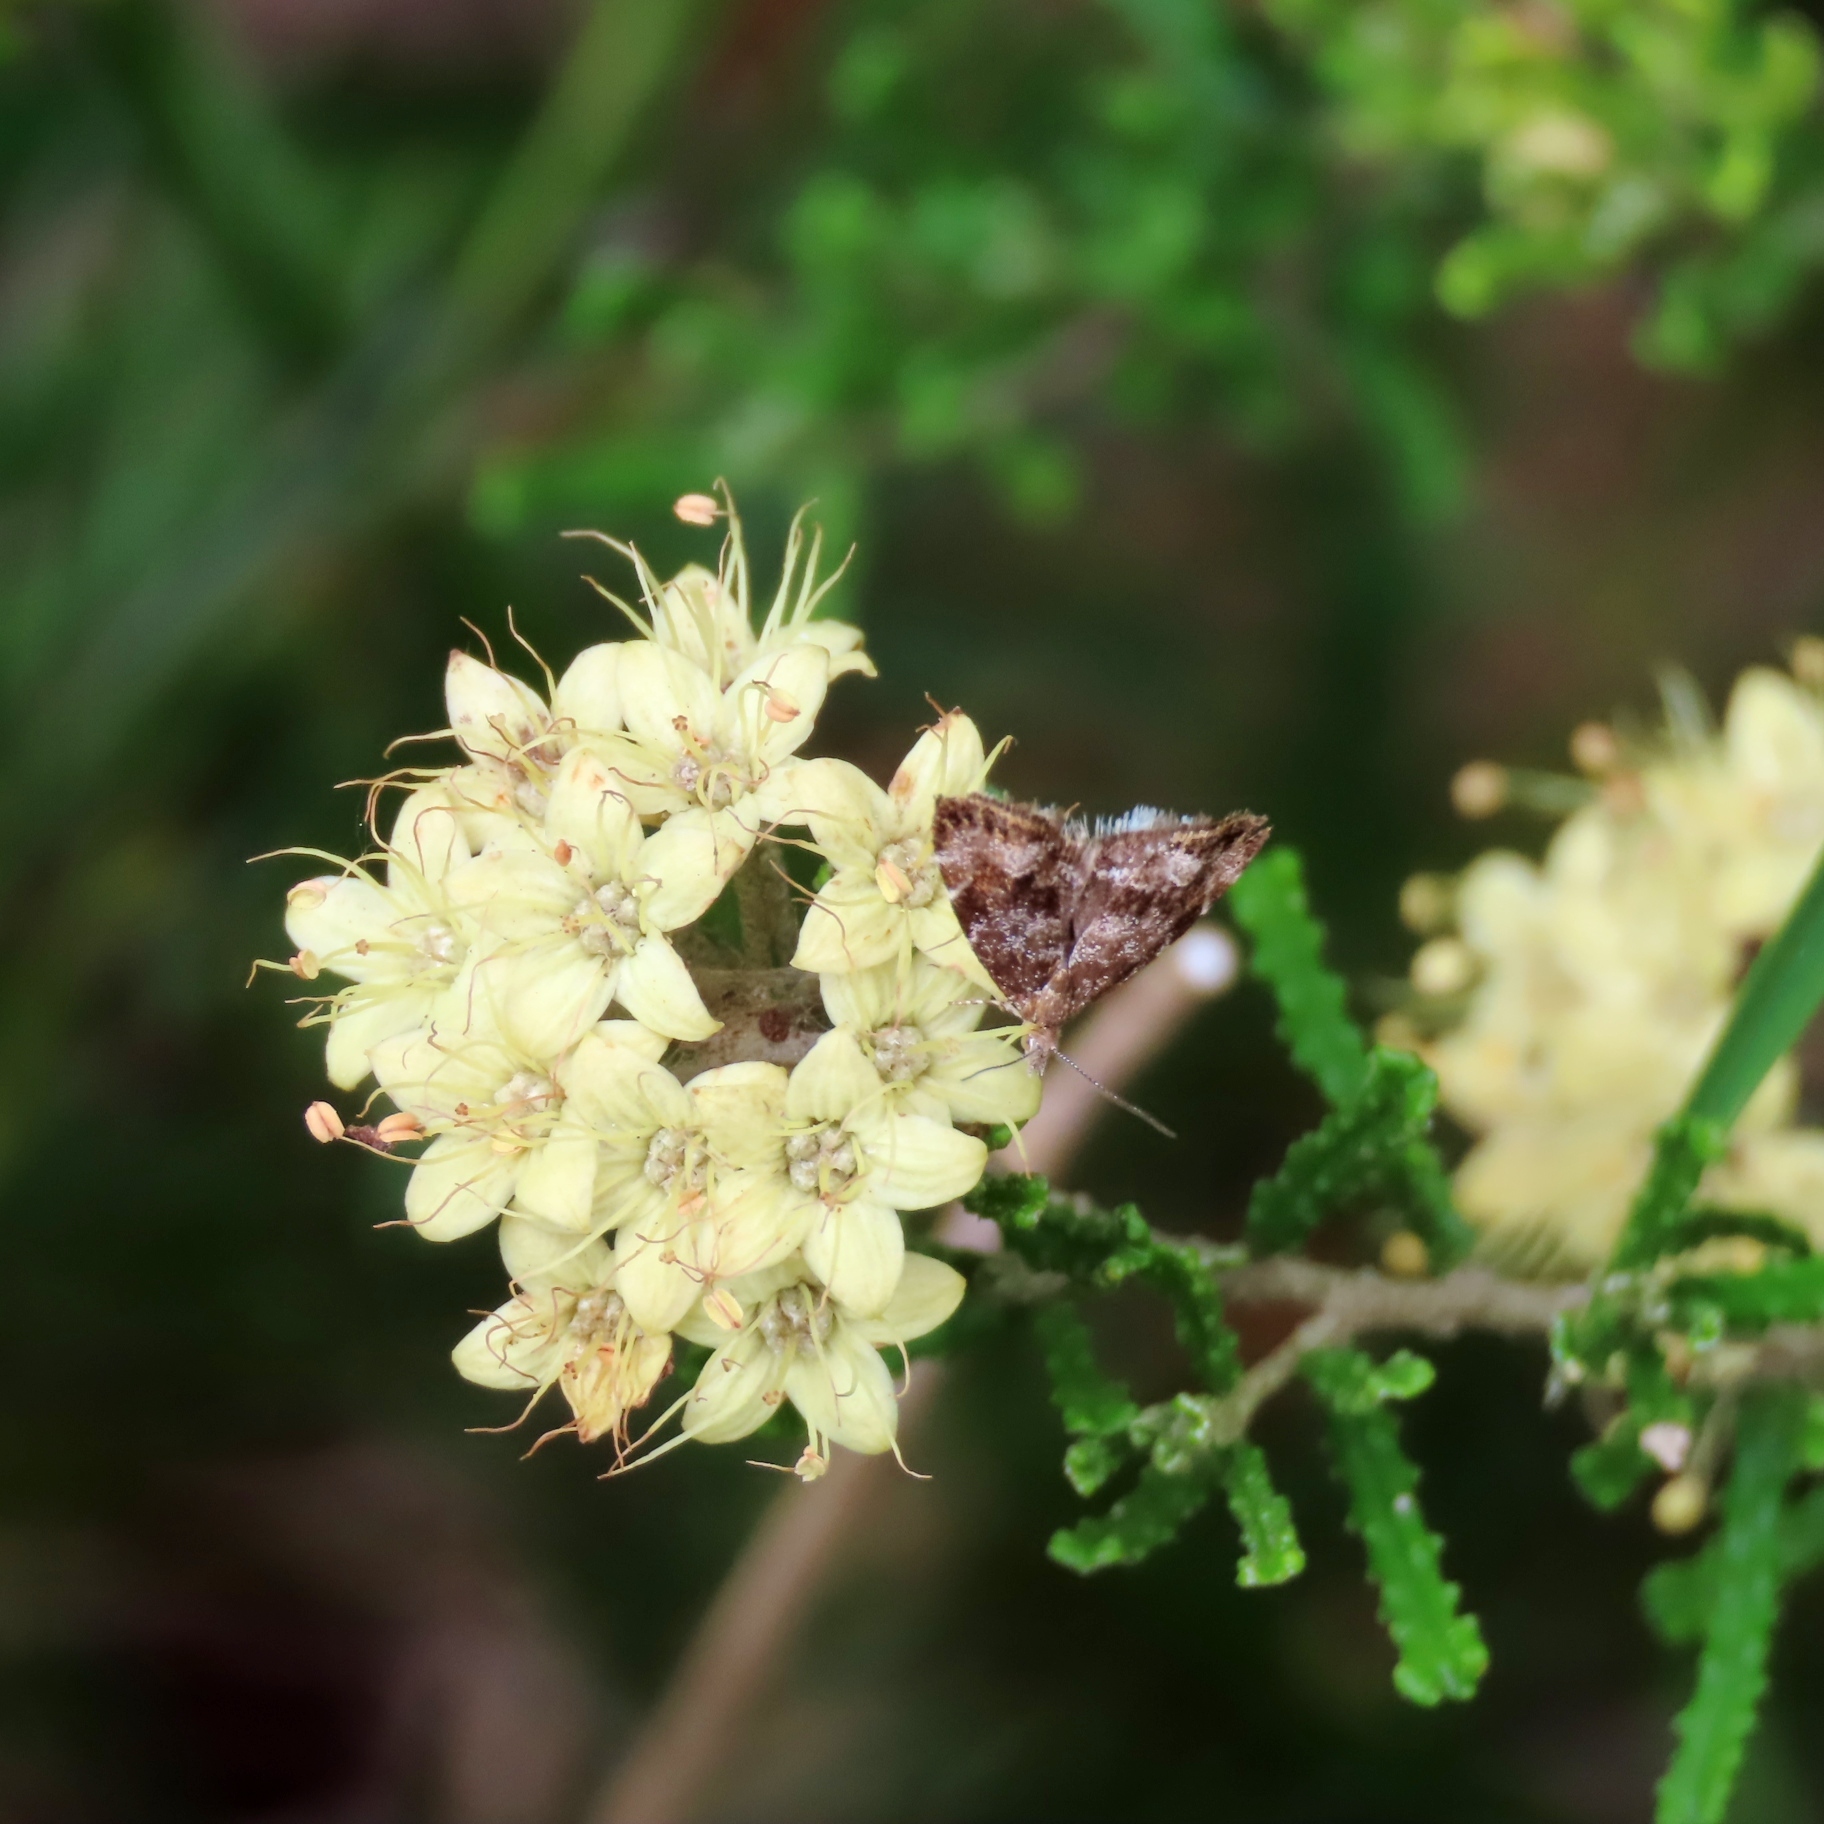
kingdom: Animalia
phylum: Arthropoda
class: Insecta
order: Lepidoptera
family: Choreutidae
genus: Asterivora
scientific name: Asterivora homotypa
